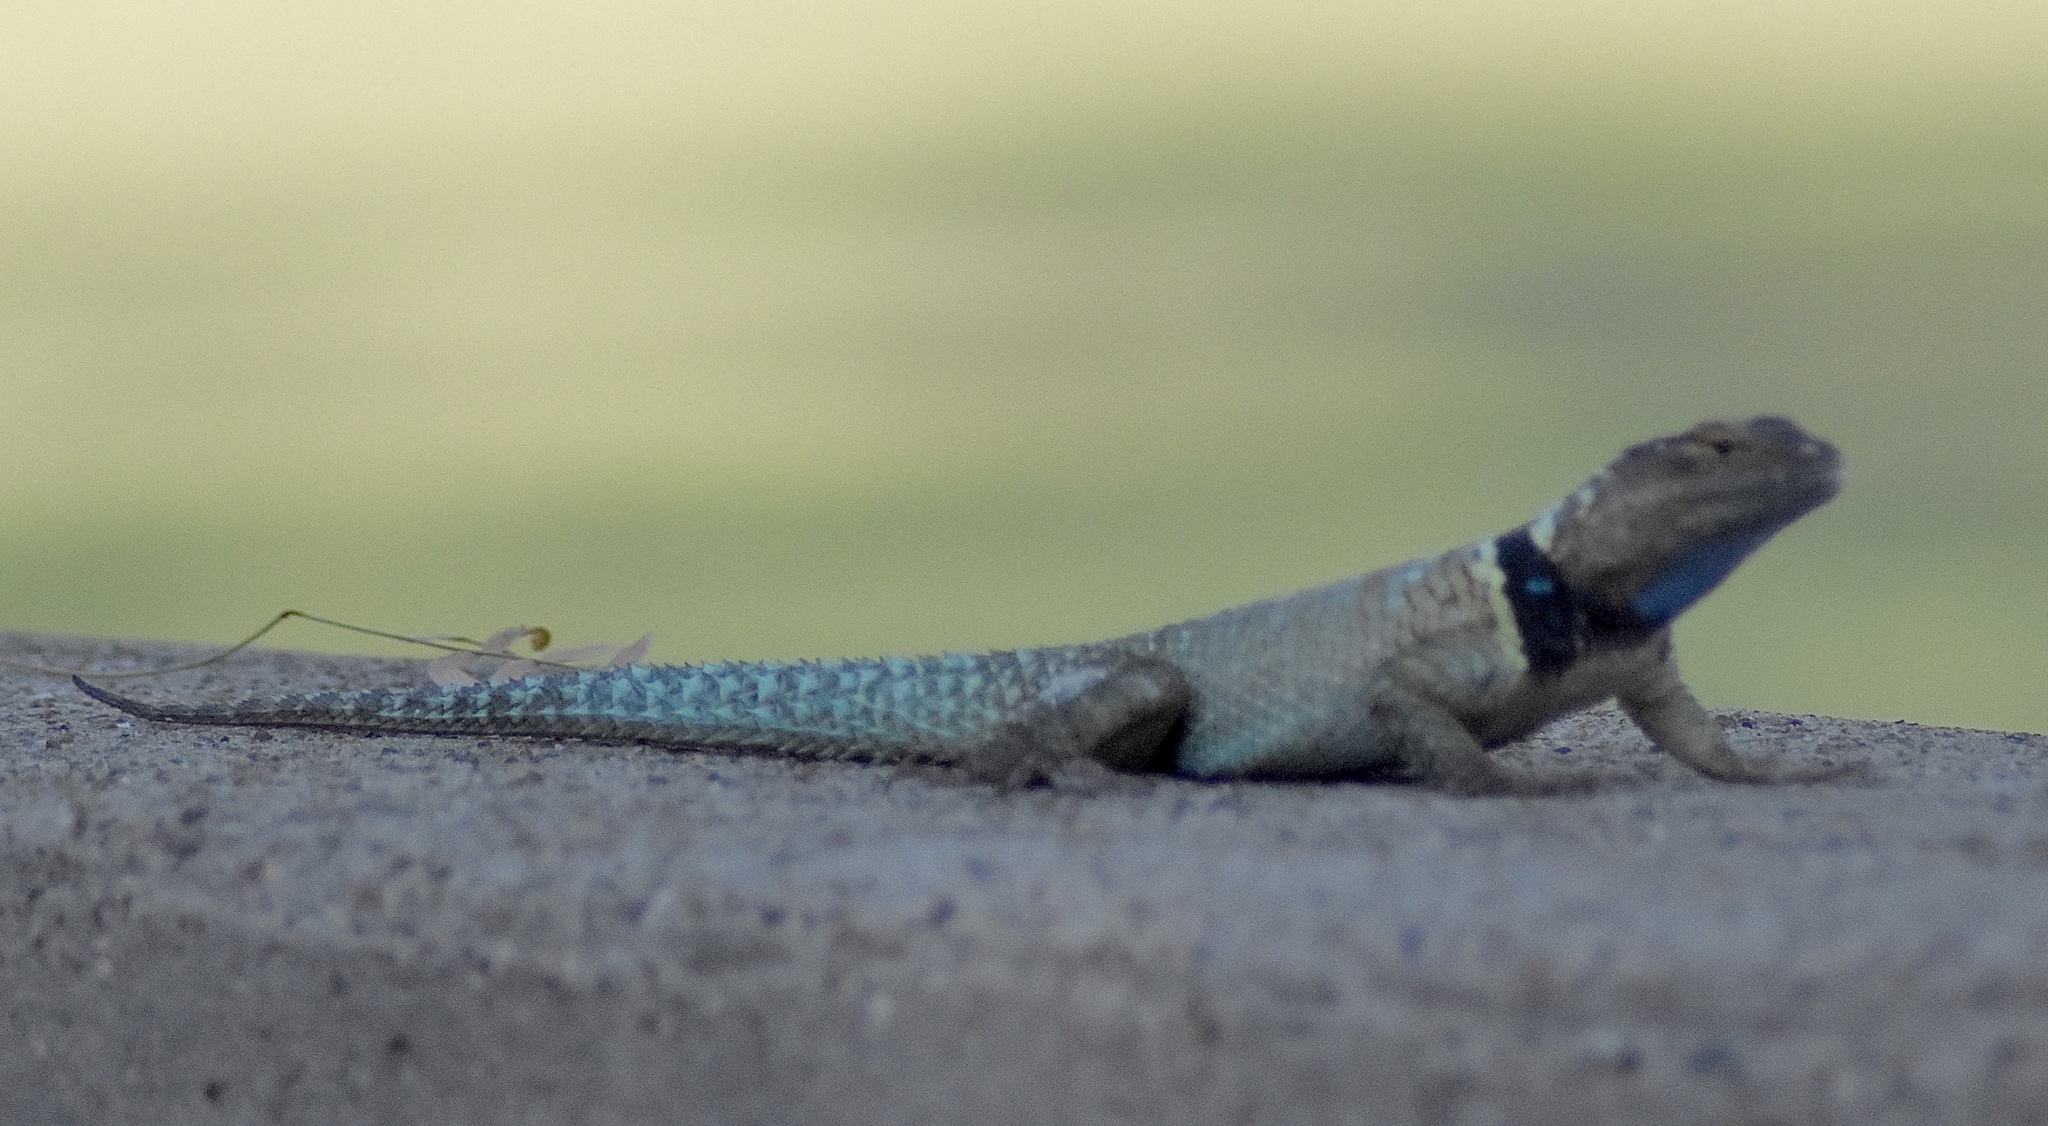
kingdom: Animalia
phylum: Chordata
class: Squamata
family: Phrynosomatidae
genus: Sceloporus
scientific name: Sceloporus cyanogenys
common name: Blue spiny lizard
